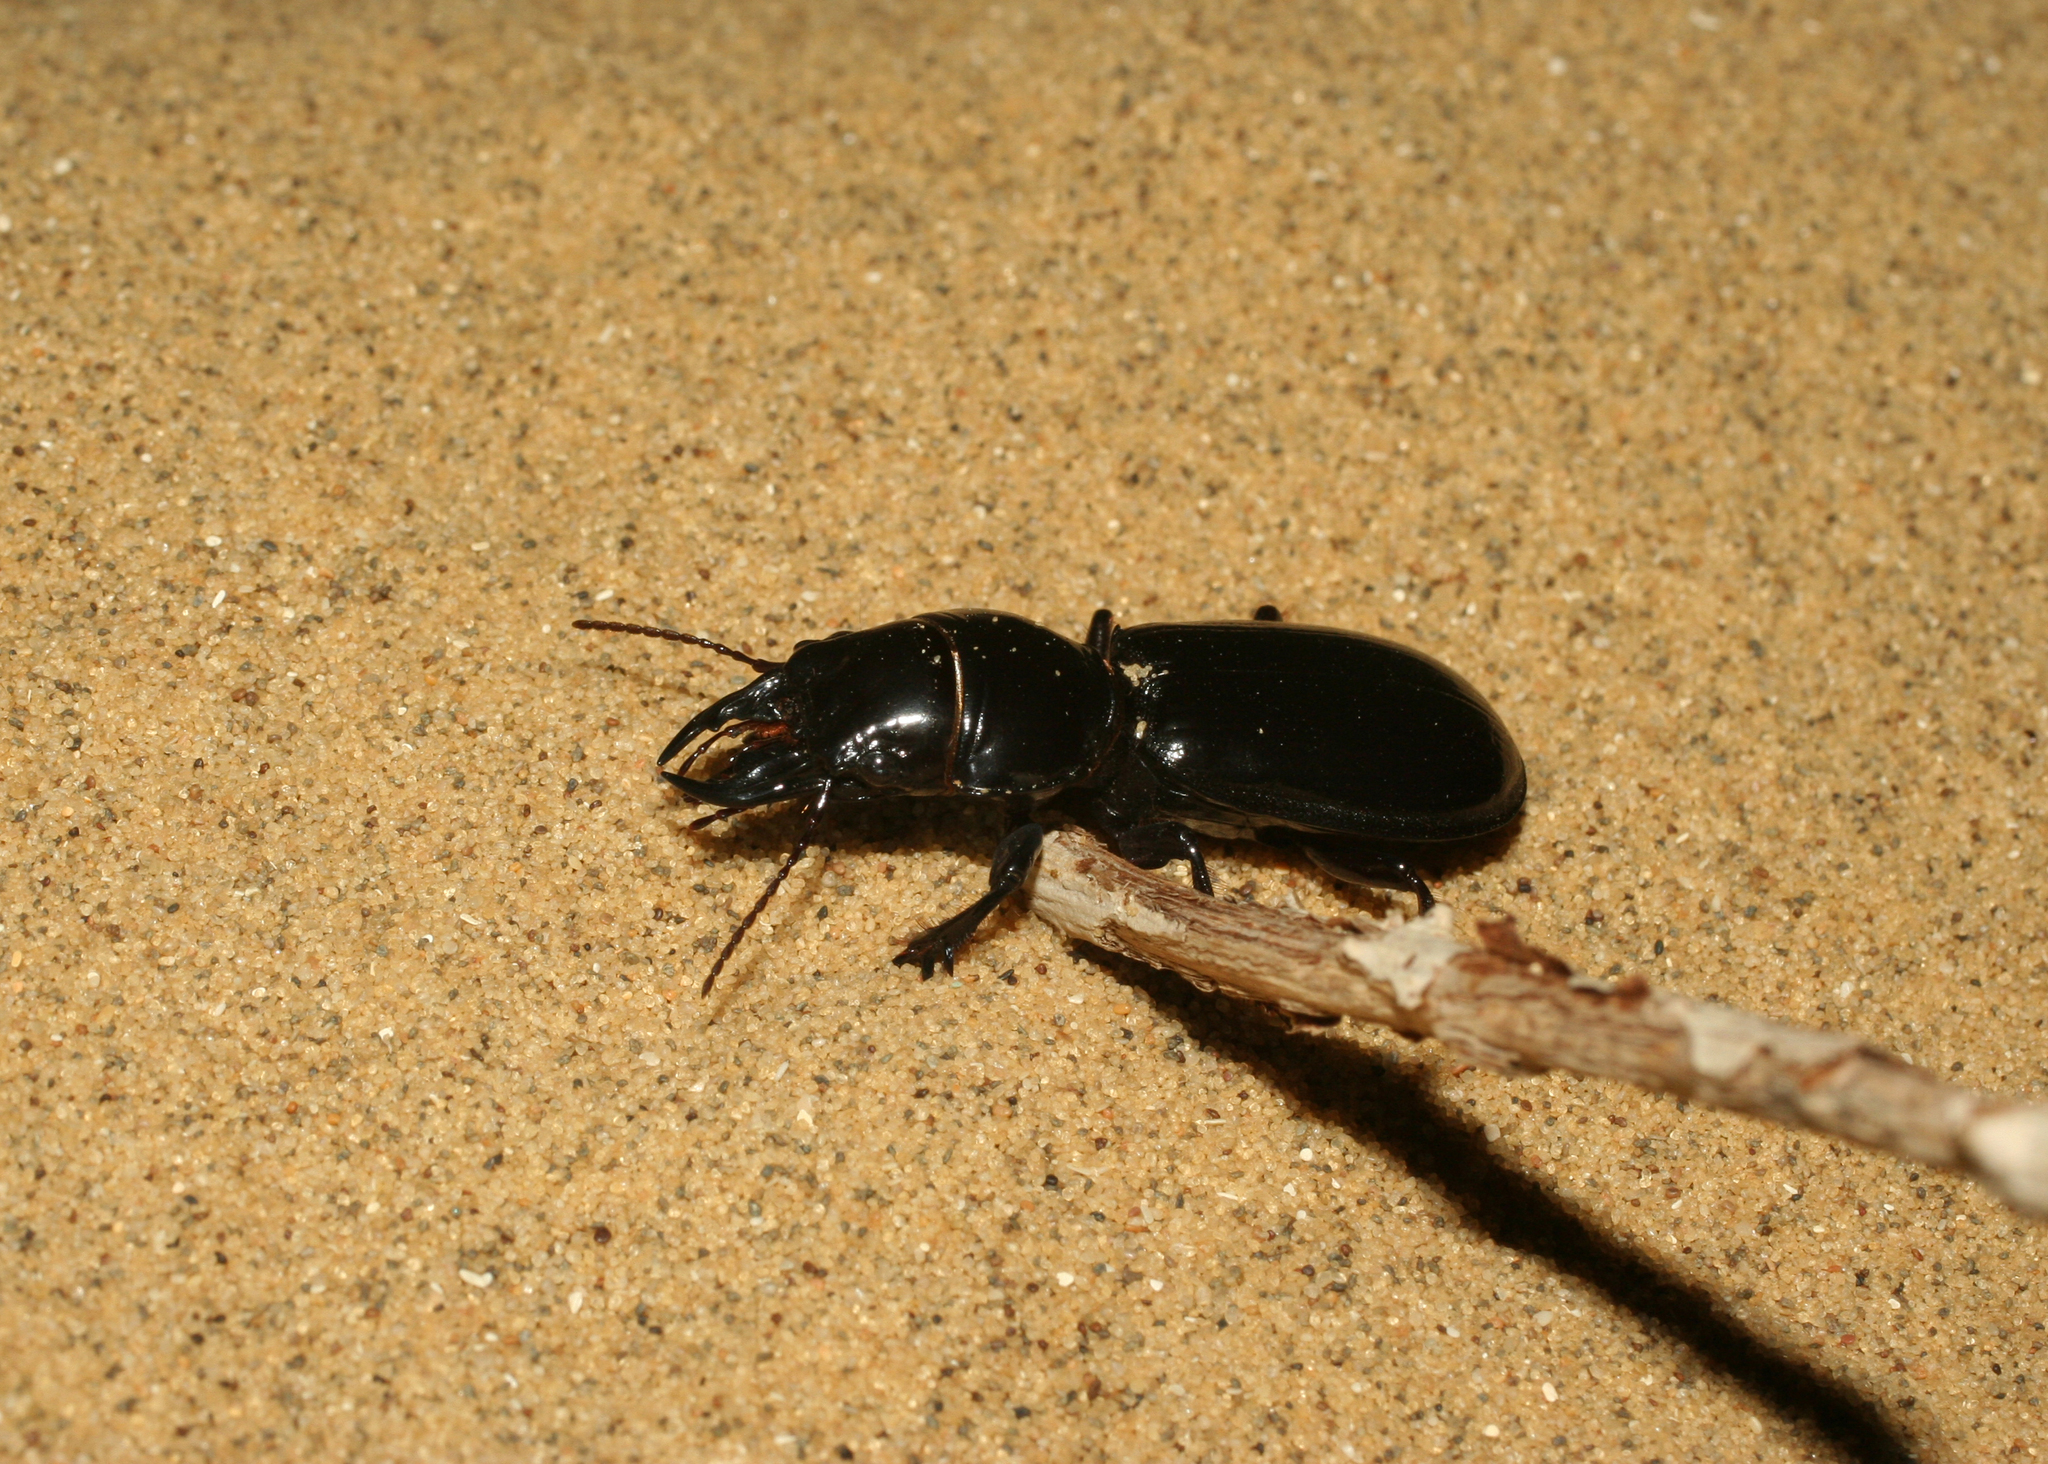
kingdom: Animalia
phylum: Arthropoda
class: Insecta
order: Coleoptera
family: Carabidae
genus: Scarites
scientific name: Scarites bucida
